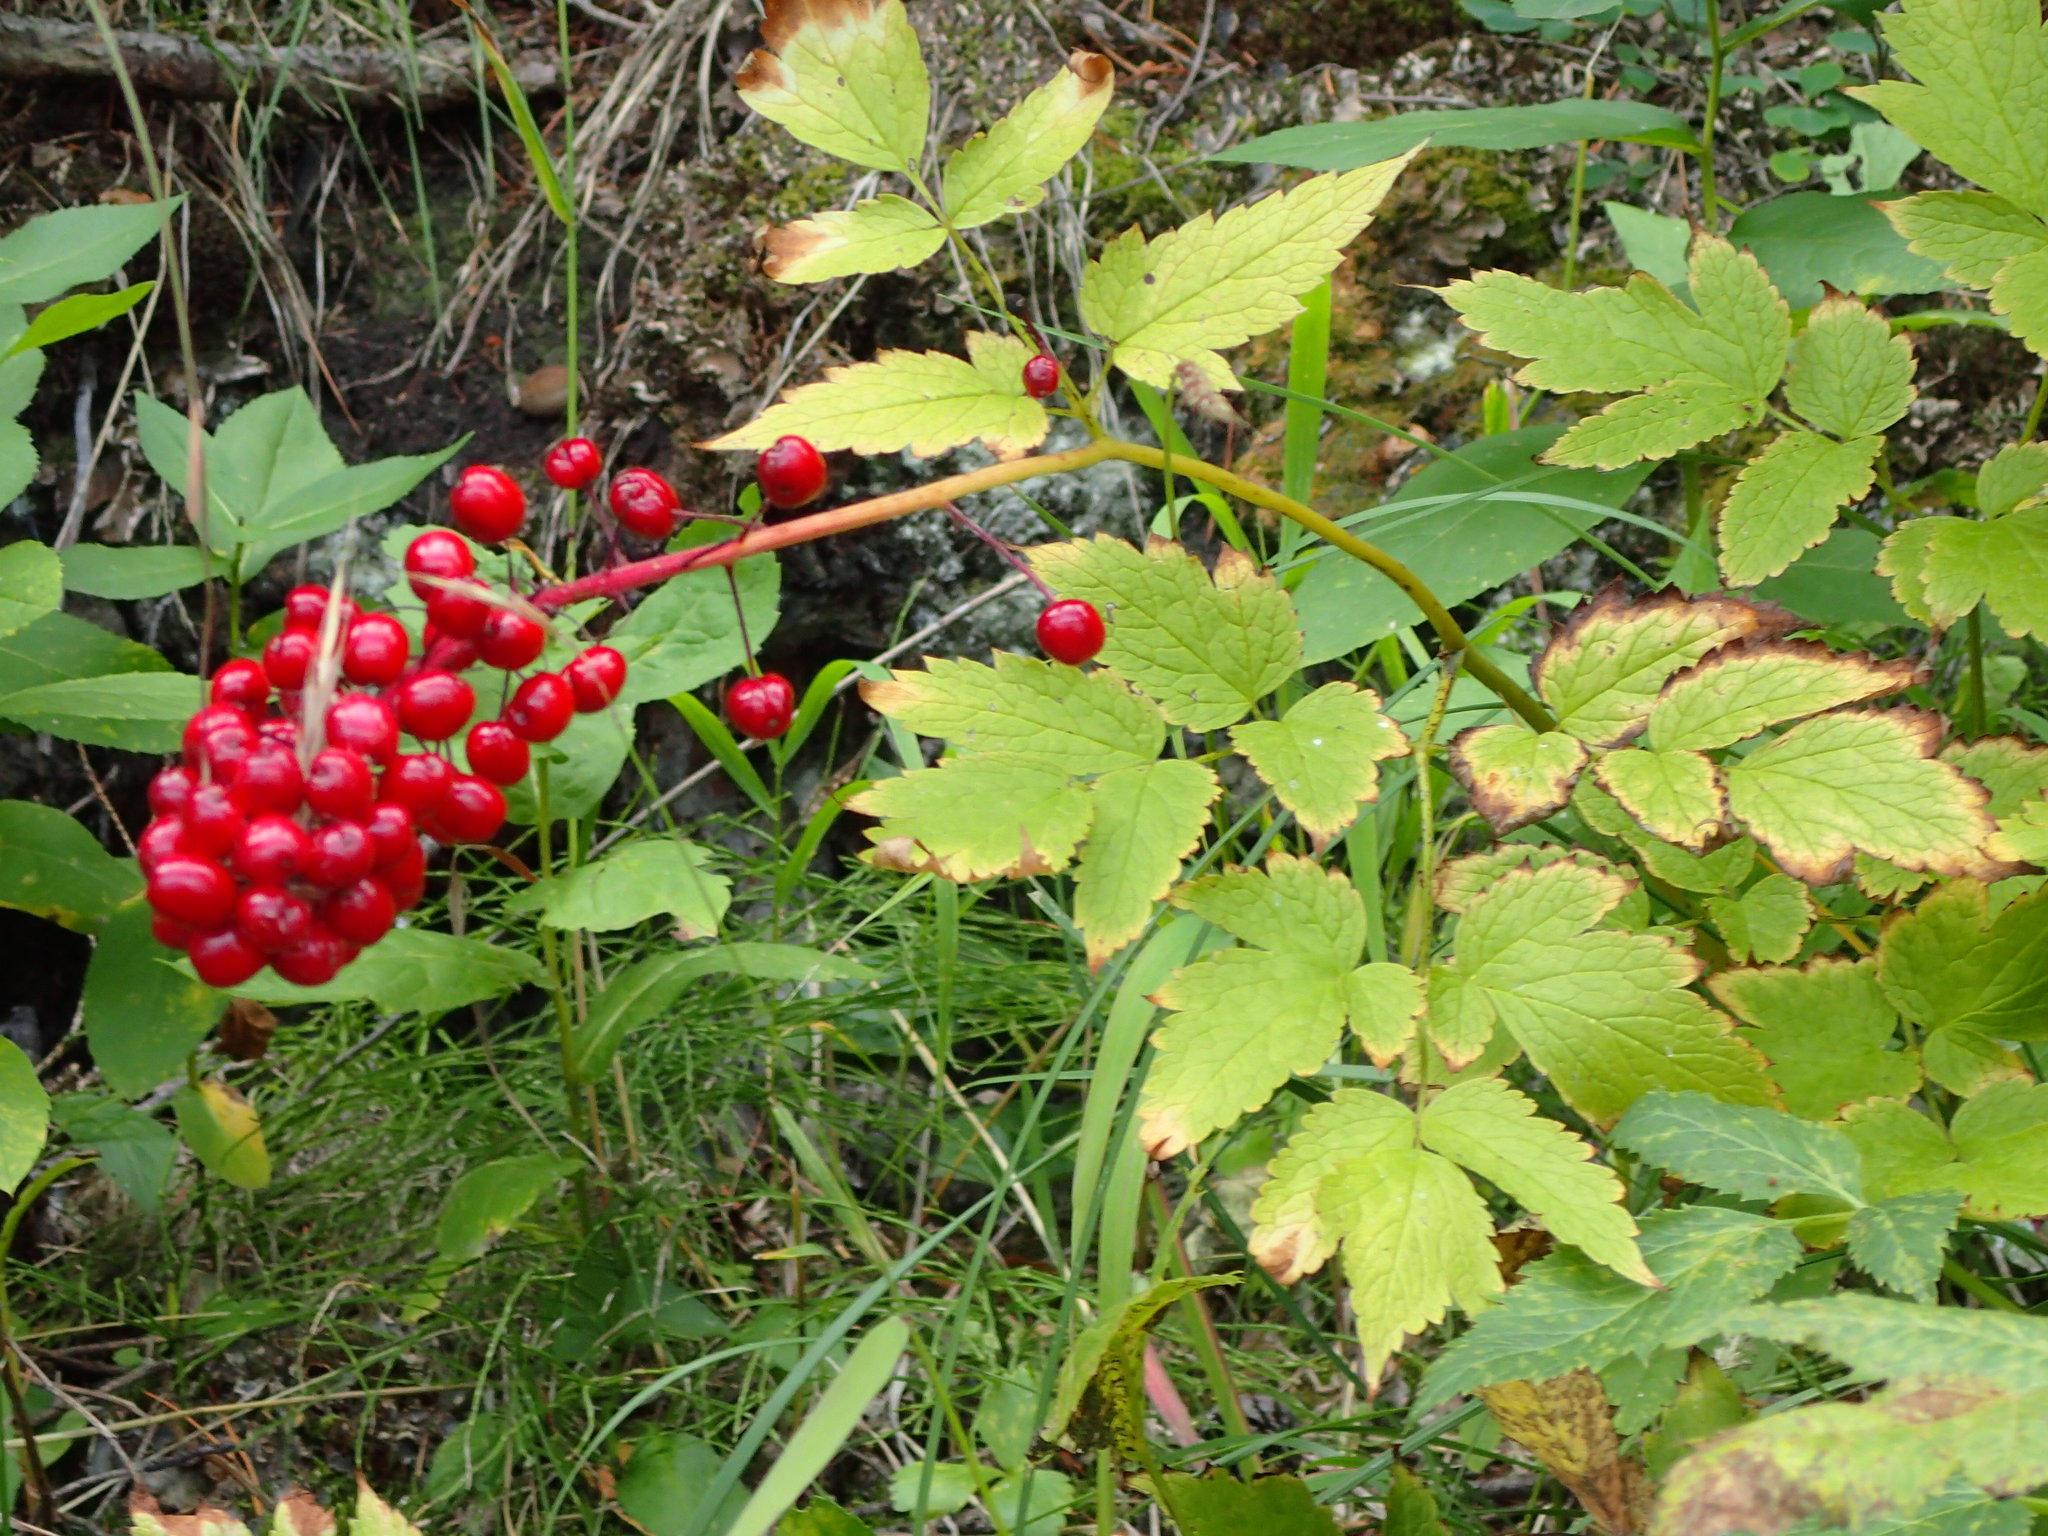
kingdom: Plantae
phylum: Tracheophyta
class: Magnoliopsida
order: Ranunculales
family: Ranunculaceae
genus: Actaea
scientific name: Actaea rubra
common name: Red baneberry
